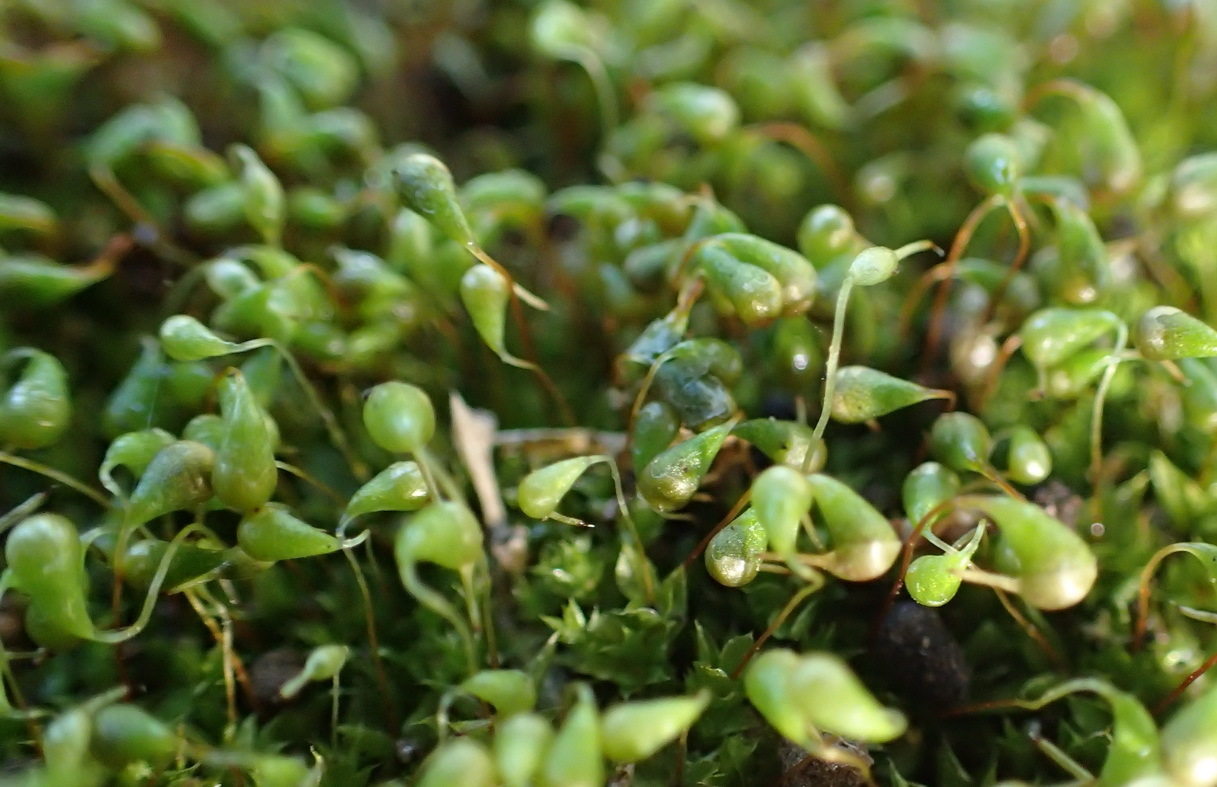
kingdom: Plantae
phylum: Bryophyta
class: Bryopsida
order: Funariales
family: Funariaceae
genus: Funaria
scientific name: Funaria hygrometrica
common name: Common cord moss
